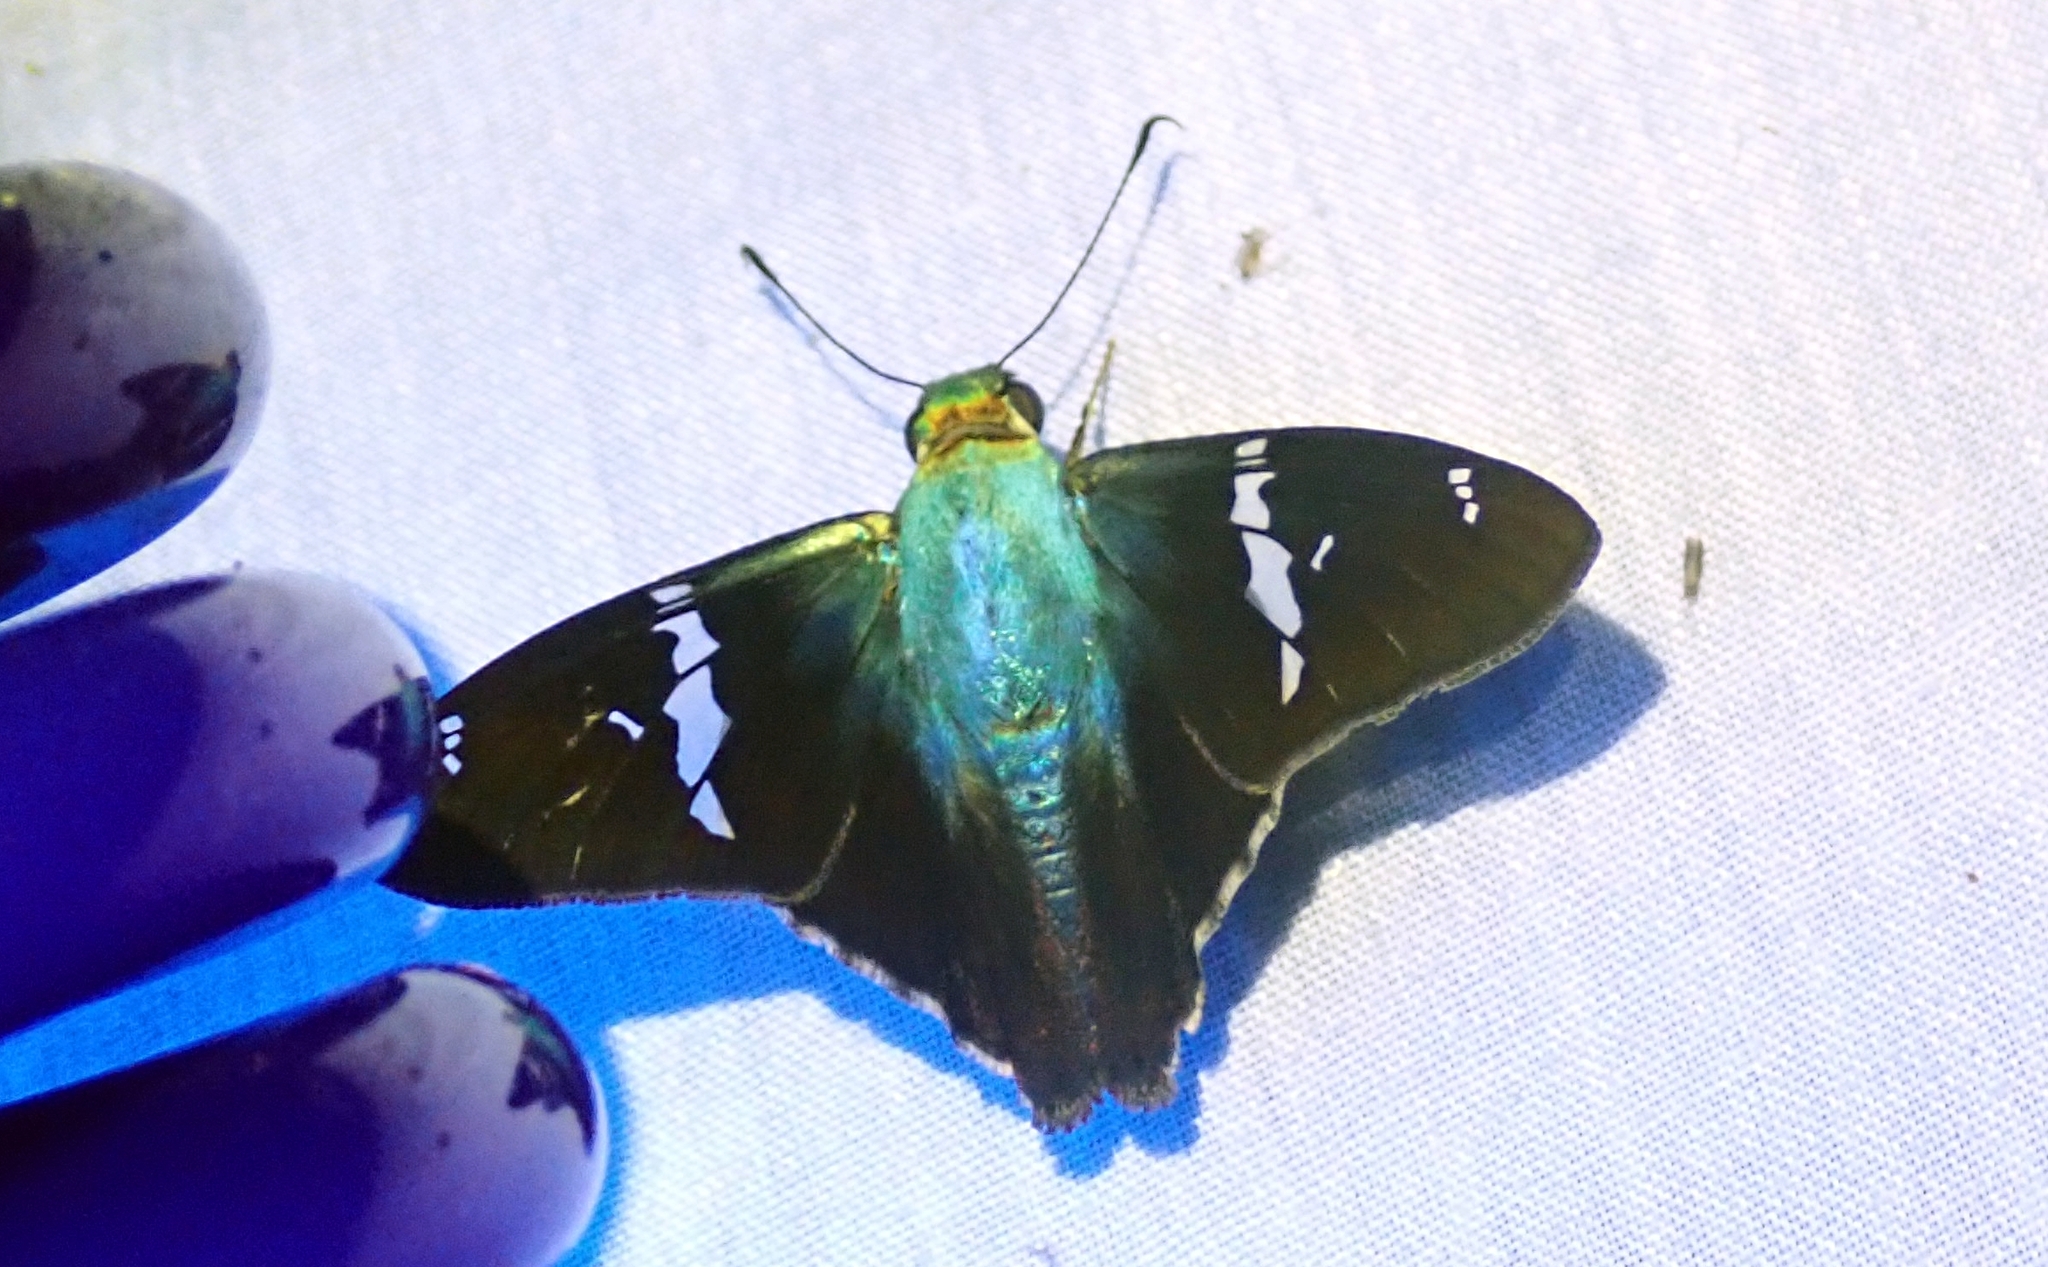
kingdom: Animalia
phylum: Arthropoda
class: Insecta
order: Lepidoptera
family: Hesperiidae
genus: Astraptes
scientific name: Astraptes fulgerator
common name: Two-barred flasher
